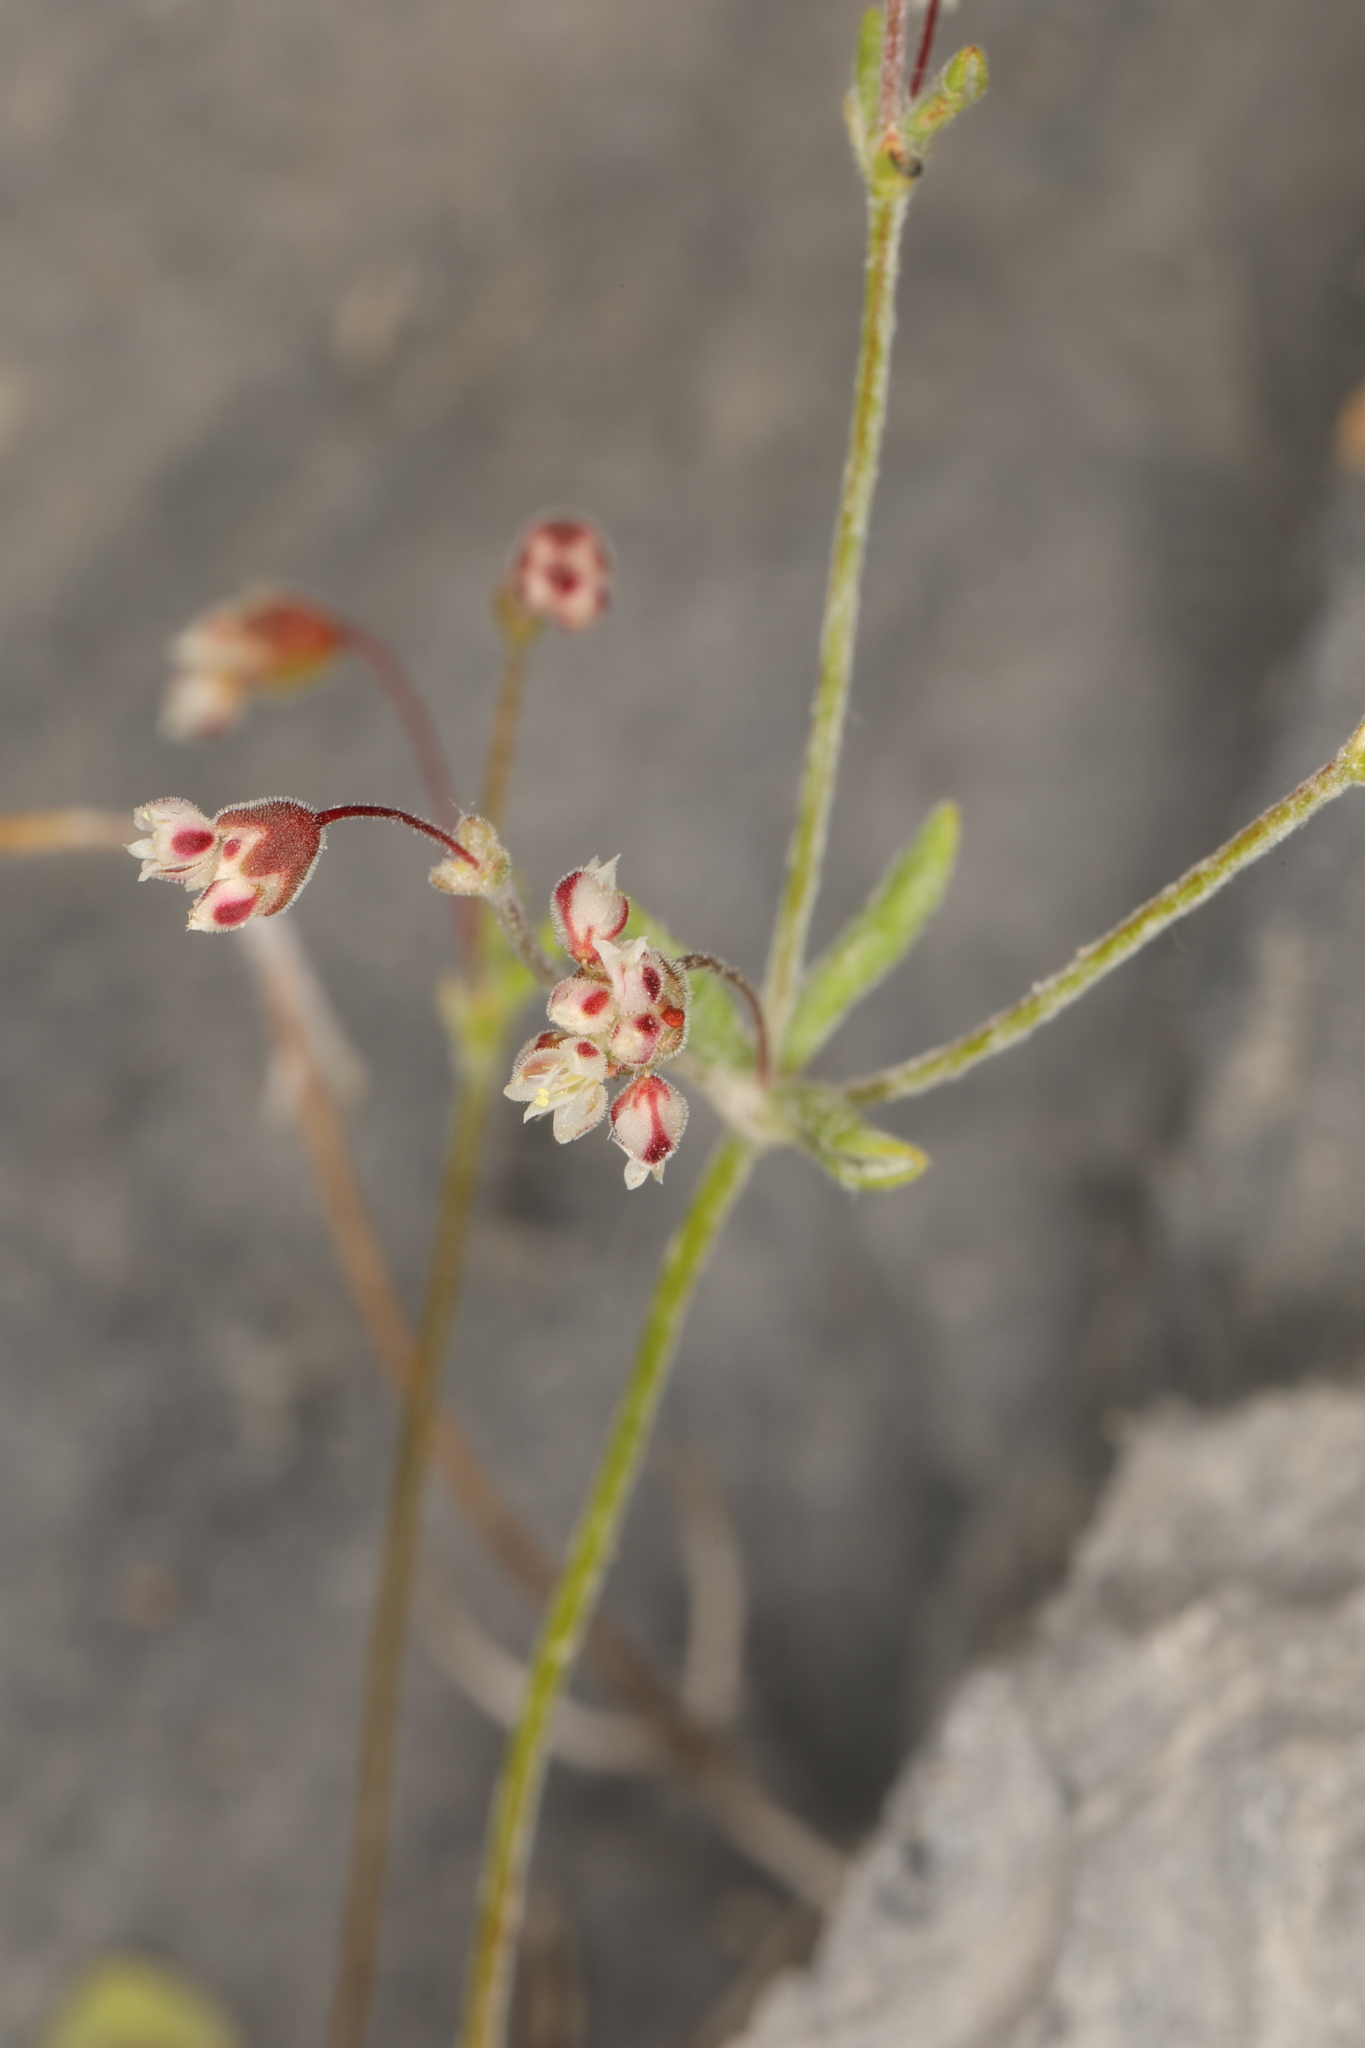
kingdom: Plantae
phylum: Tracheophyta
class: Magnoliopsida
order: Caryophyllales
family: Polygonaceae
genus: Eriogonum
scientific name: Eriogonum maculatum
